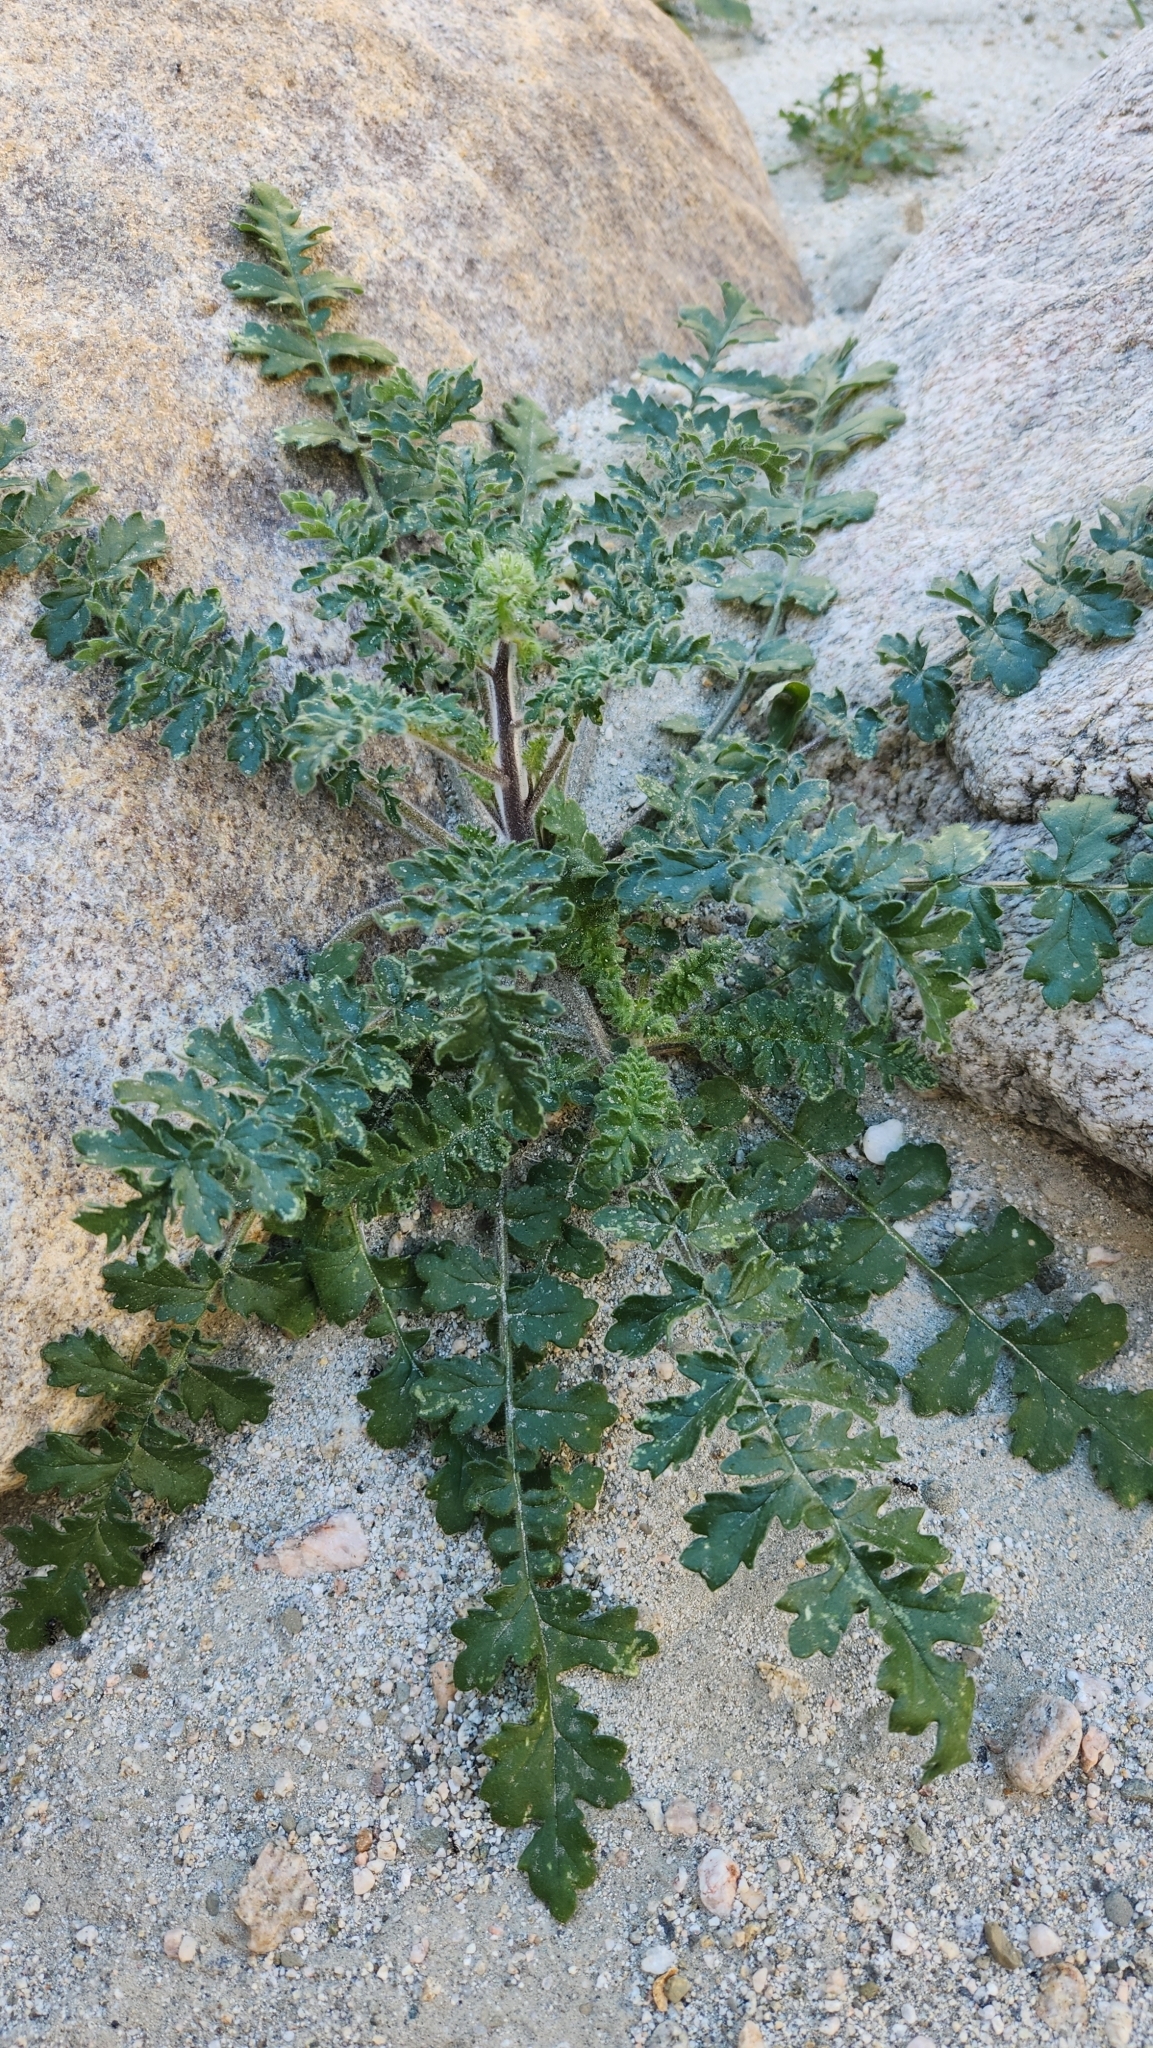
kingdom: Plantae
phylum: Tracheophyta
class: Magnoliopsida
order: Boraginales
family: Hydrophyllaceae
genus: Phacelia
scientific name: Phacelia crenulata
